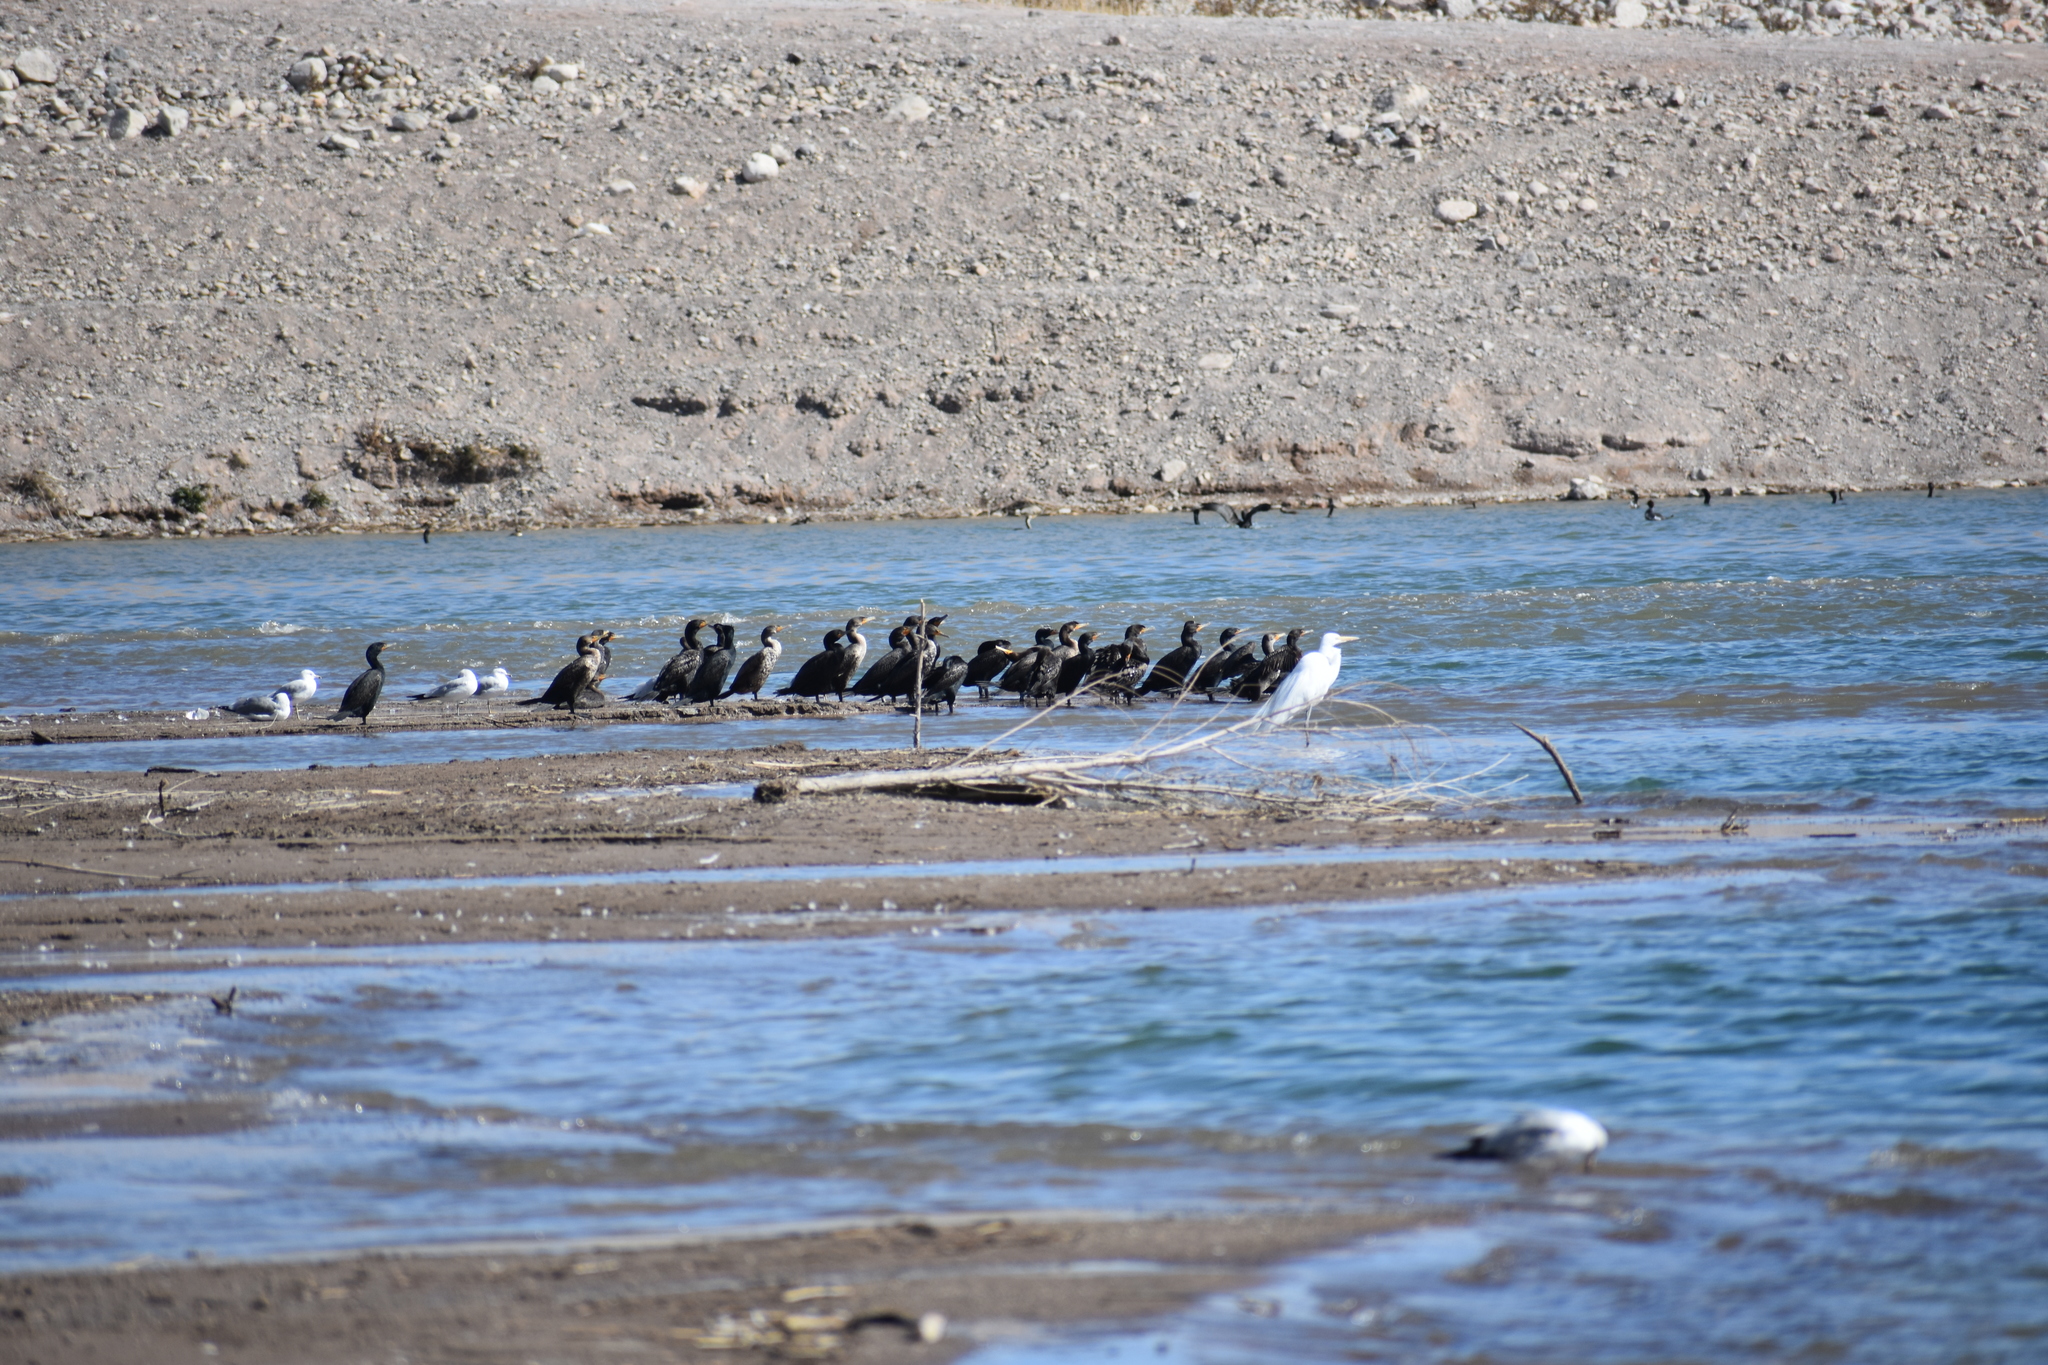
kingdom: Animalia
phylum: Chordata
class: Aves
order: Pelecaniformes
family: Ardeidae
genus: Ardea
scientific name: Ardea alba
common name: Great egret
